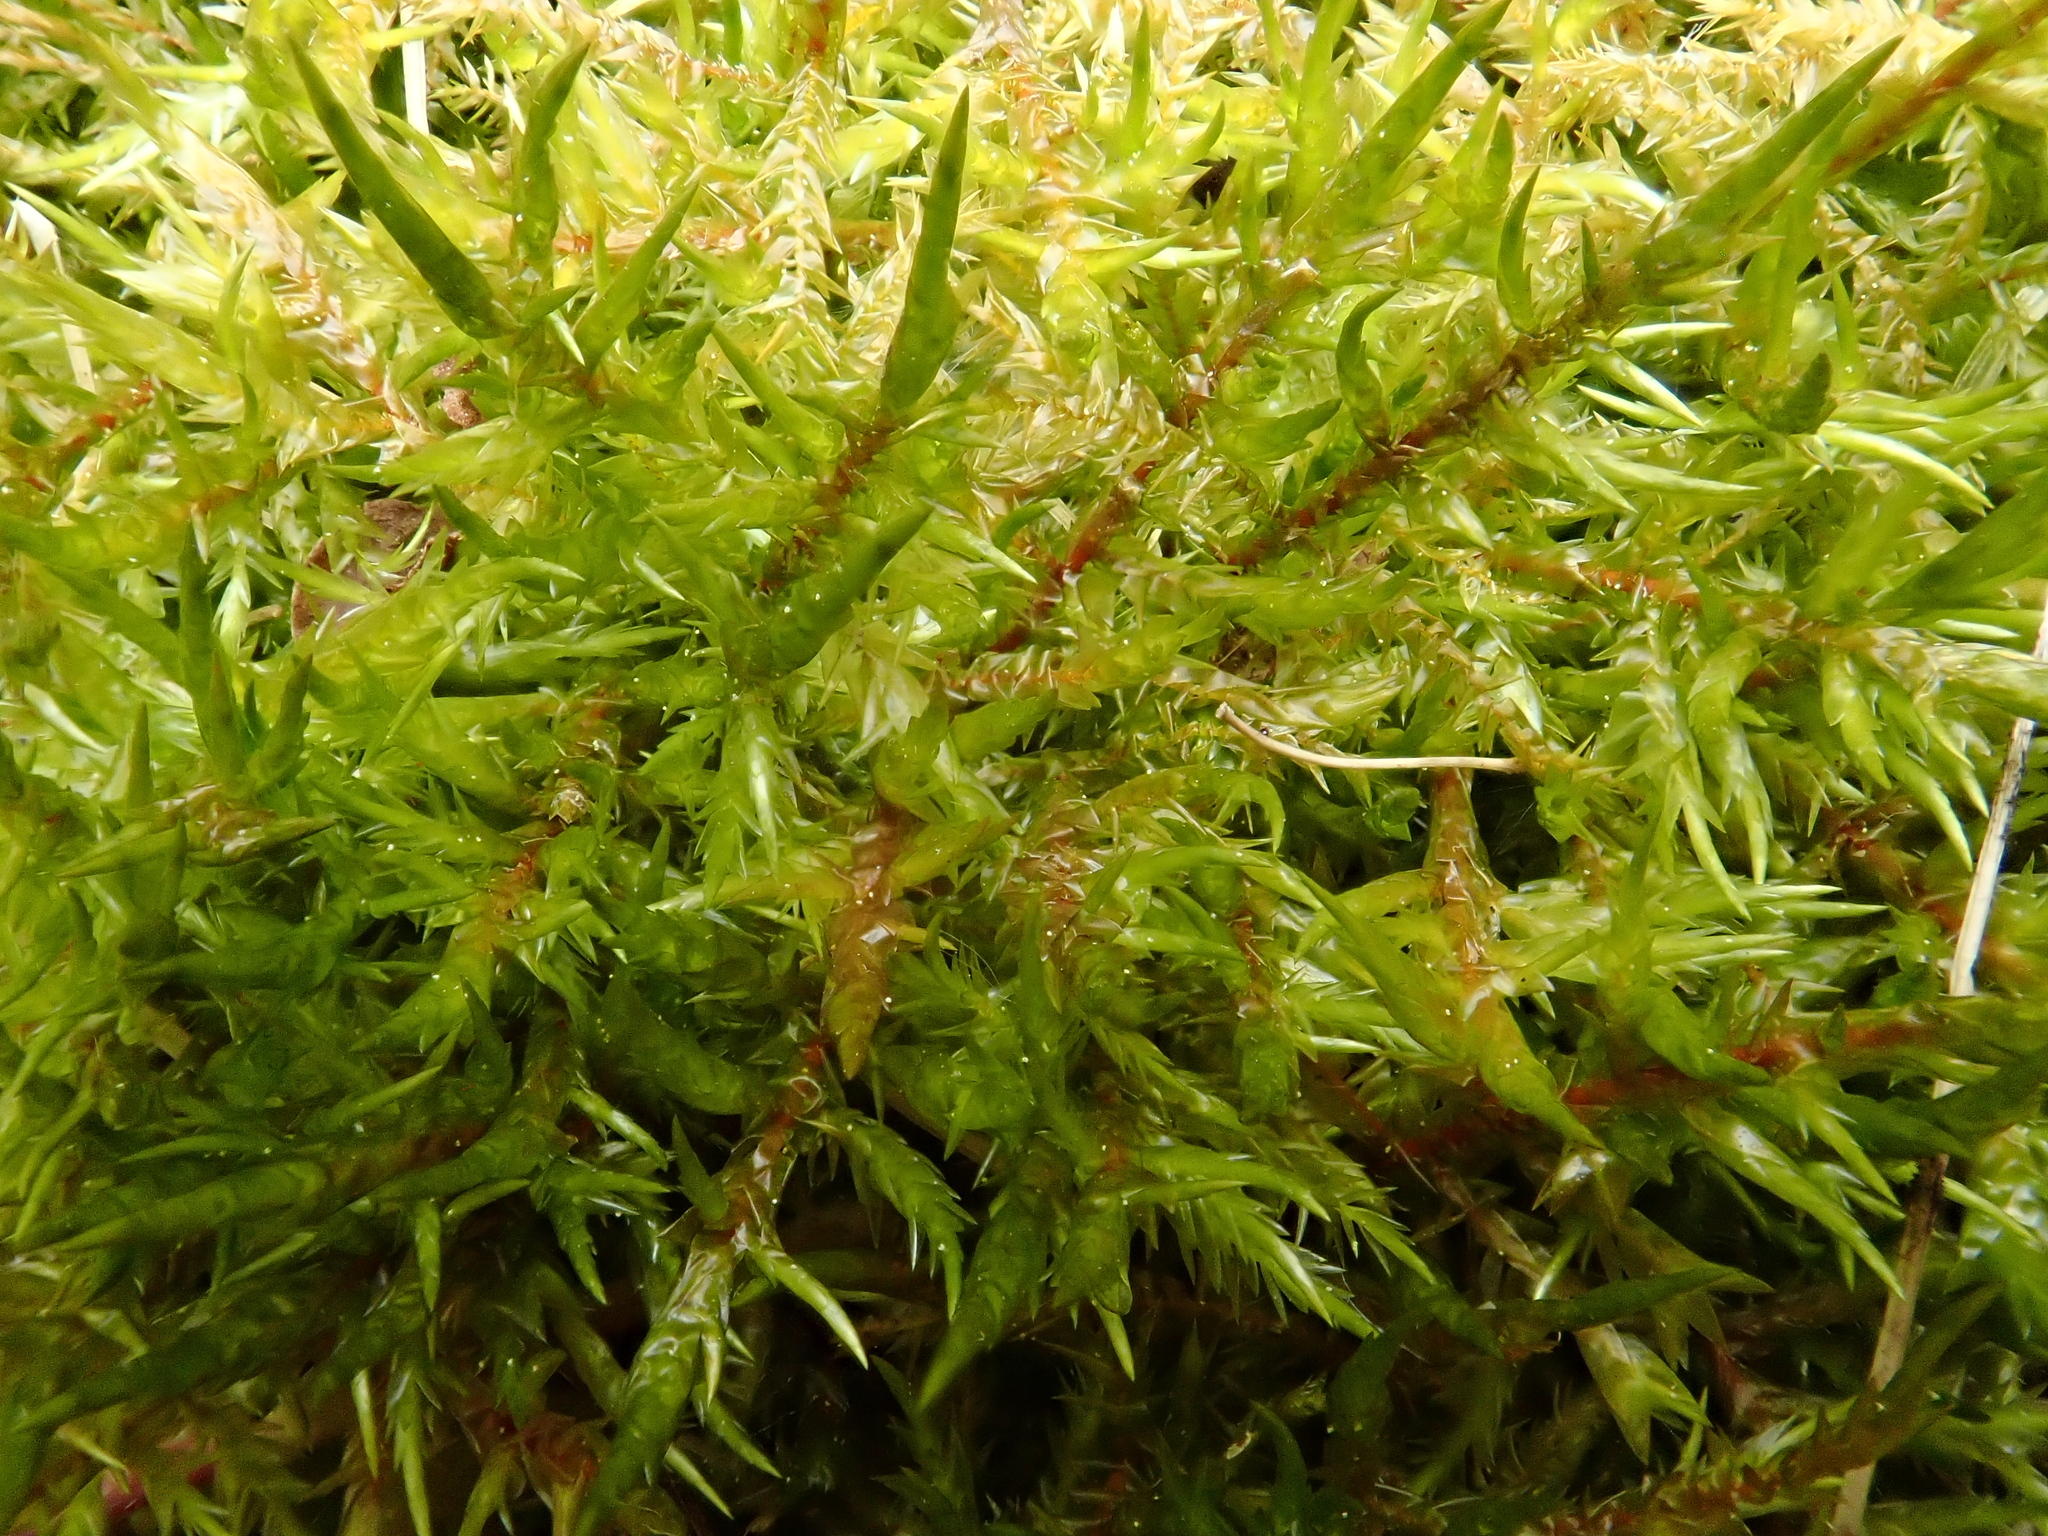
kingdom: Plantae
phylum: Bryophyta
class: Bryopsida
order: Hypnales
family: Pylaisiaceae
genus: Calliergonella
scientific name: Calliergonella cuspidata
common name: Common large wetland moss
